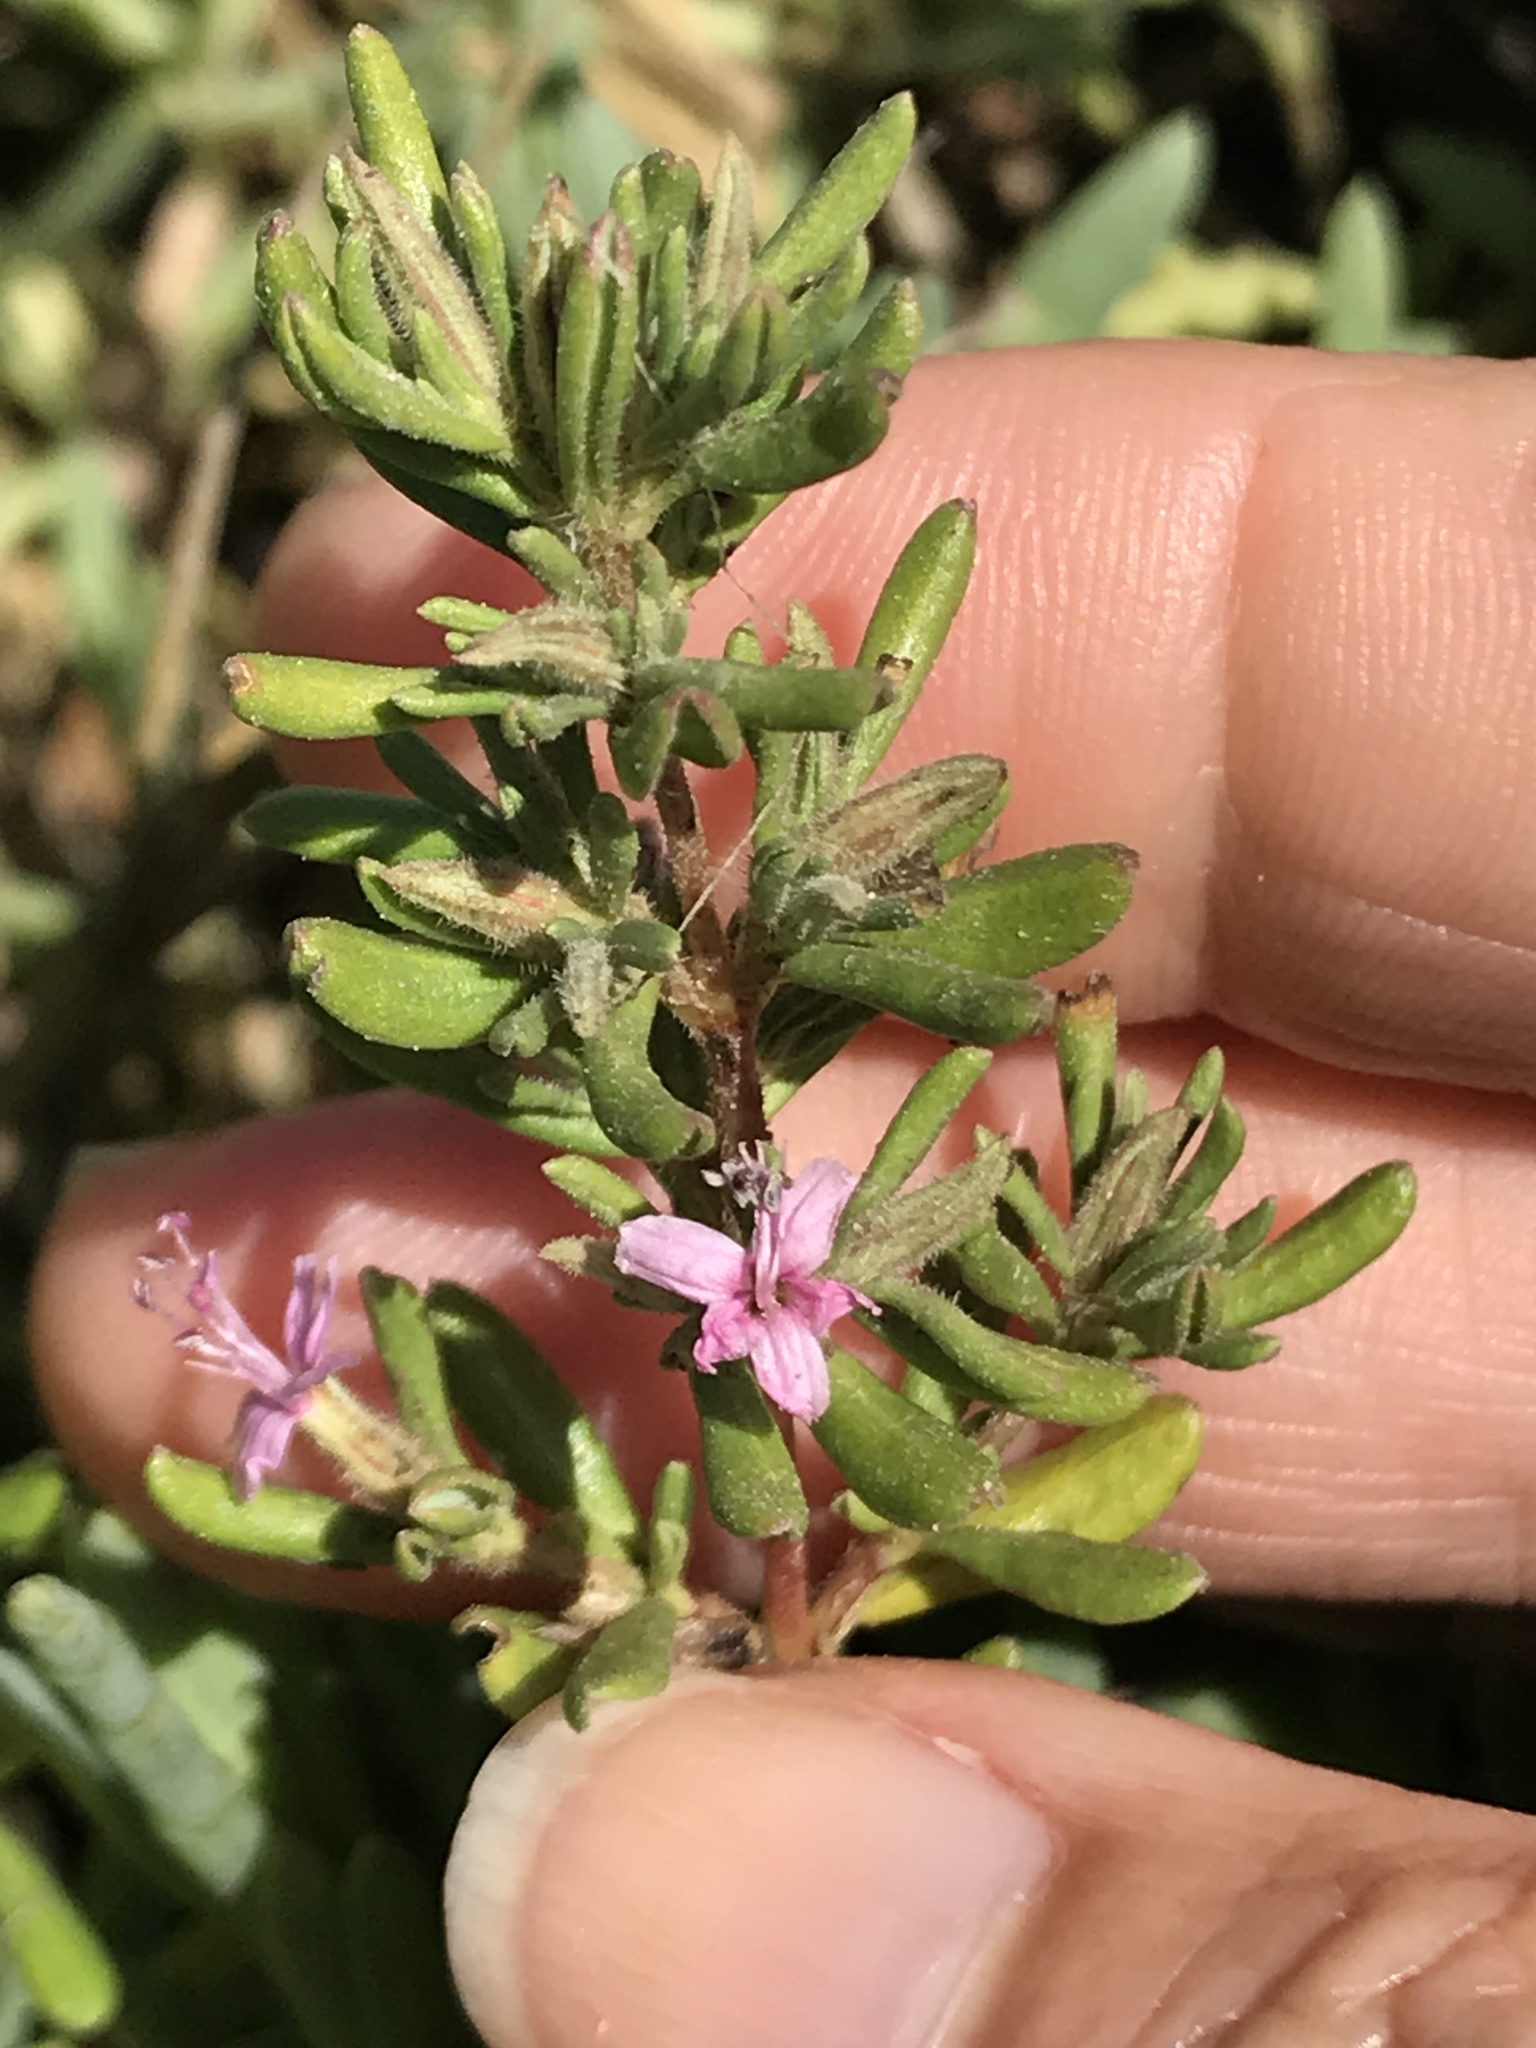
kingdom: Plantae
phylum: Tracheophyta
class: Magnoliopsida
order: Caryophyllales
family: Frankeniaceae
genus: Frankenia
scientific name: Frankenia salina
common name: Alkali seaheath
